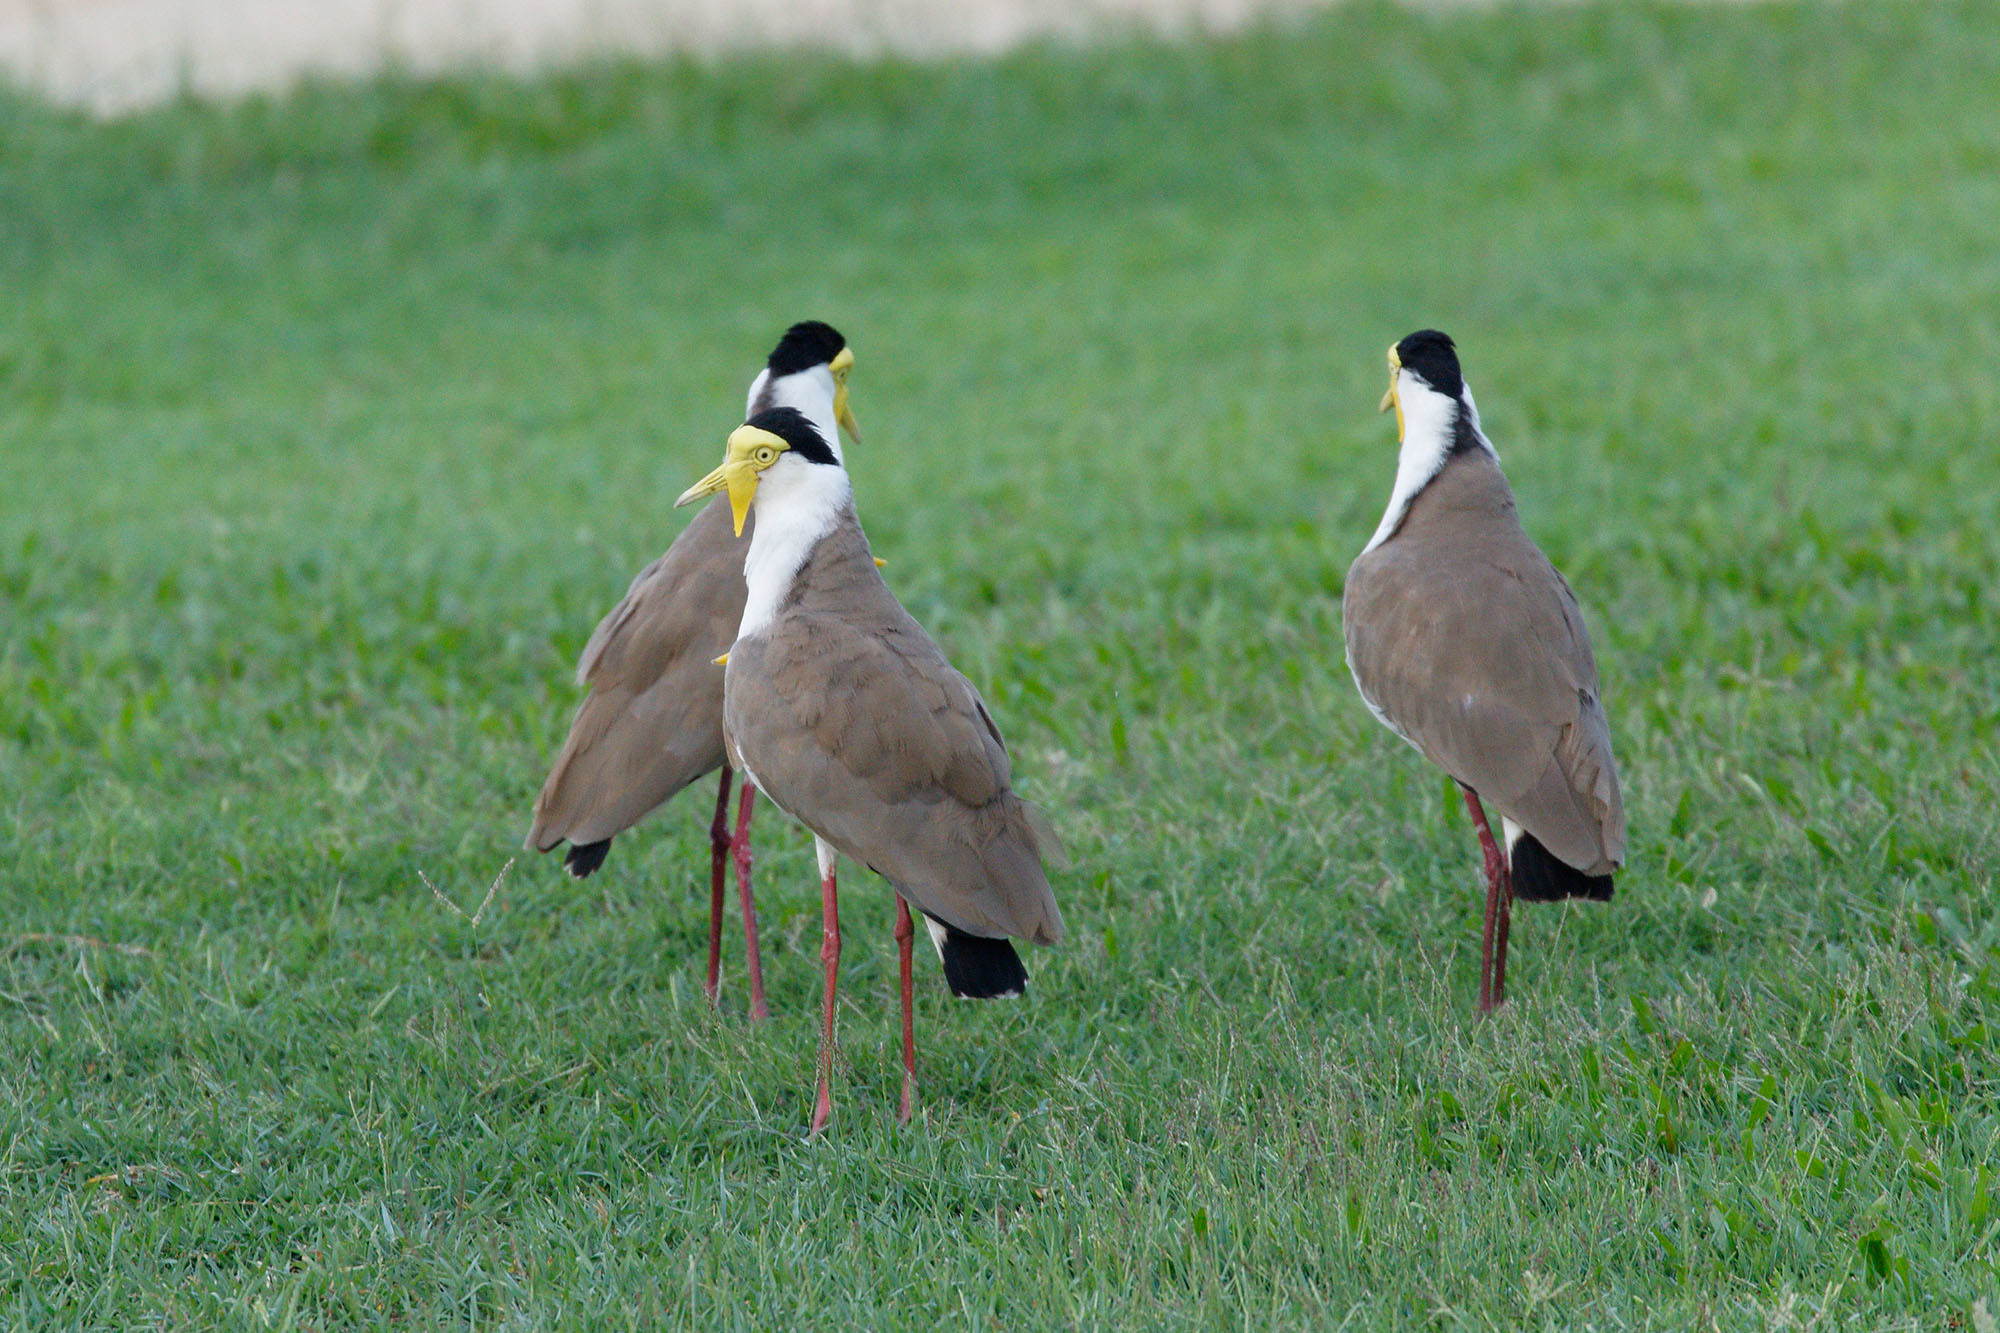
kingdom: Animalia
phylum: Chordata
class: Aves
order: Charadriiformes
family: Charadriidae
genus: Vanellus
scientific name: Vanellus miles
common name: Masked lapwing
